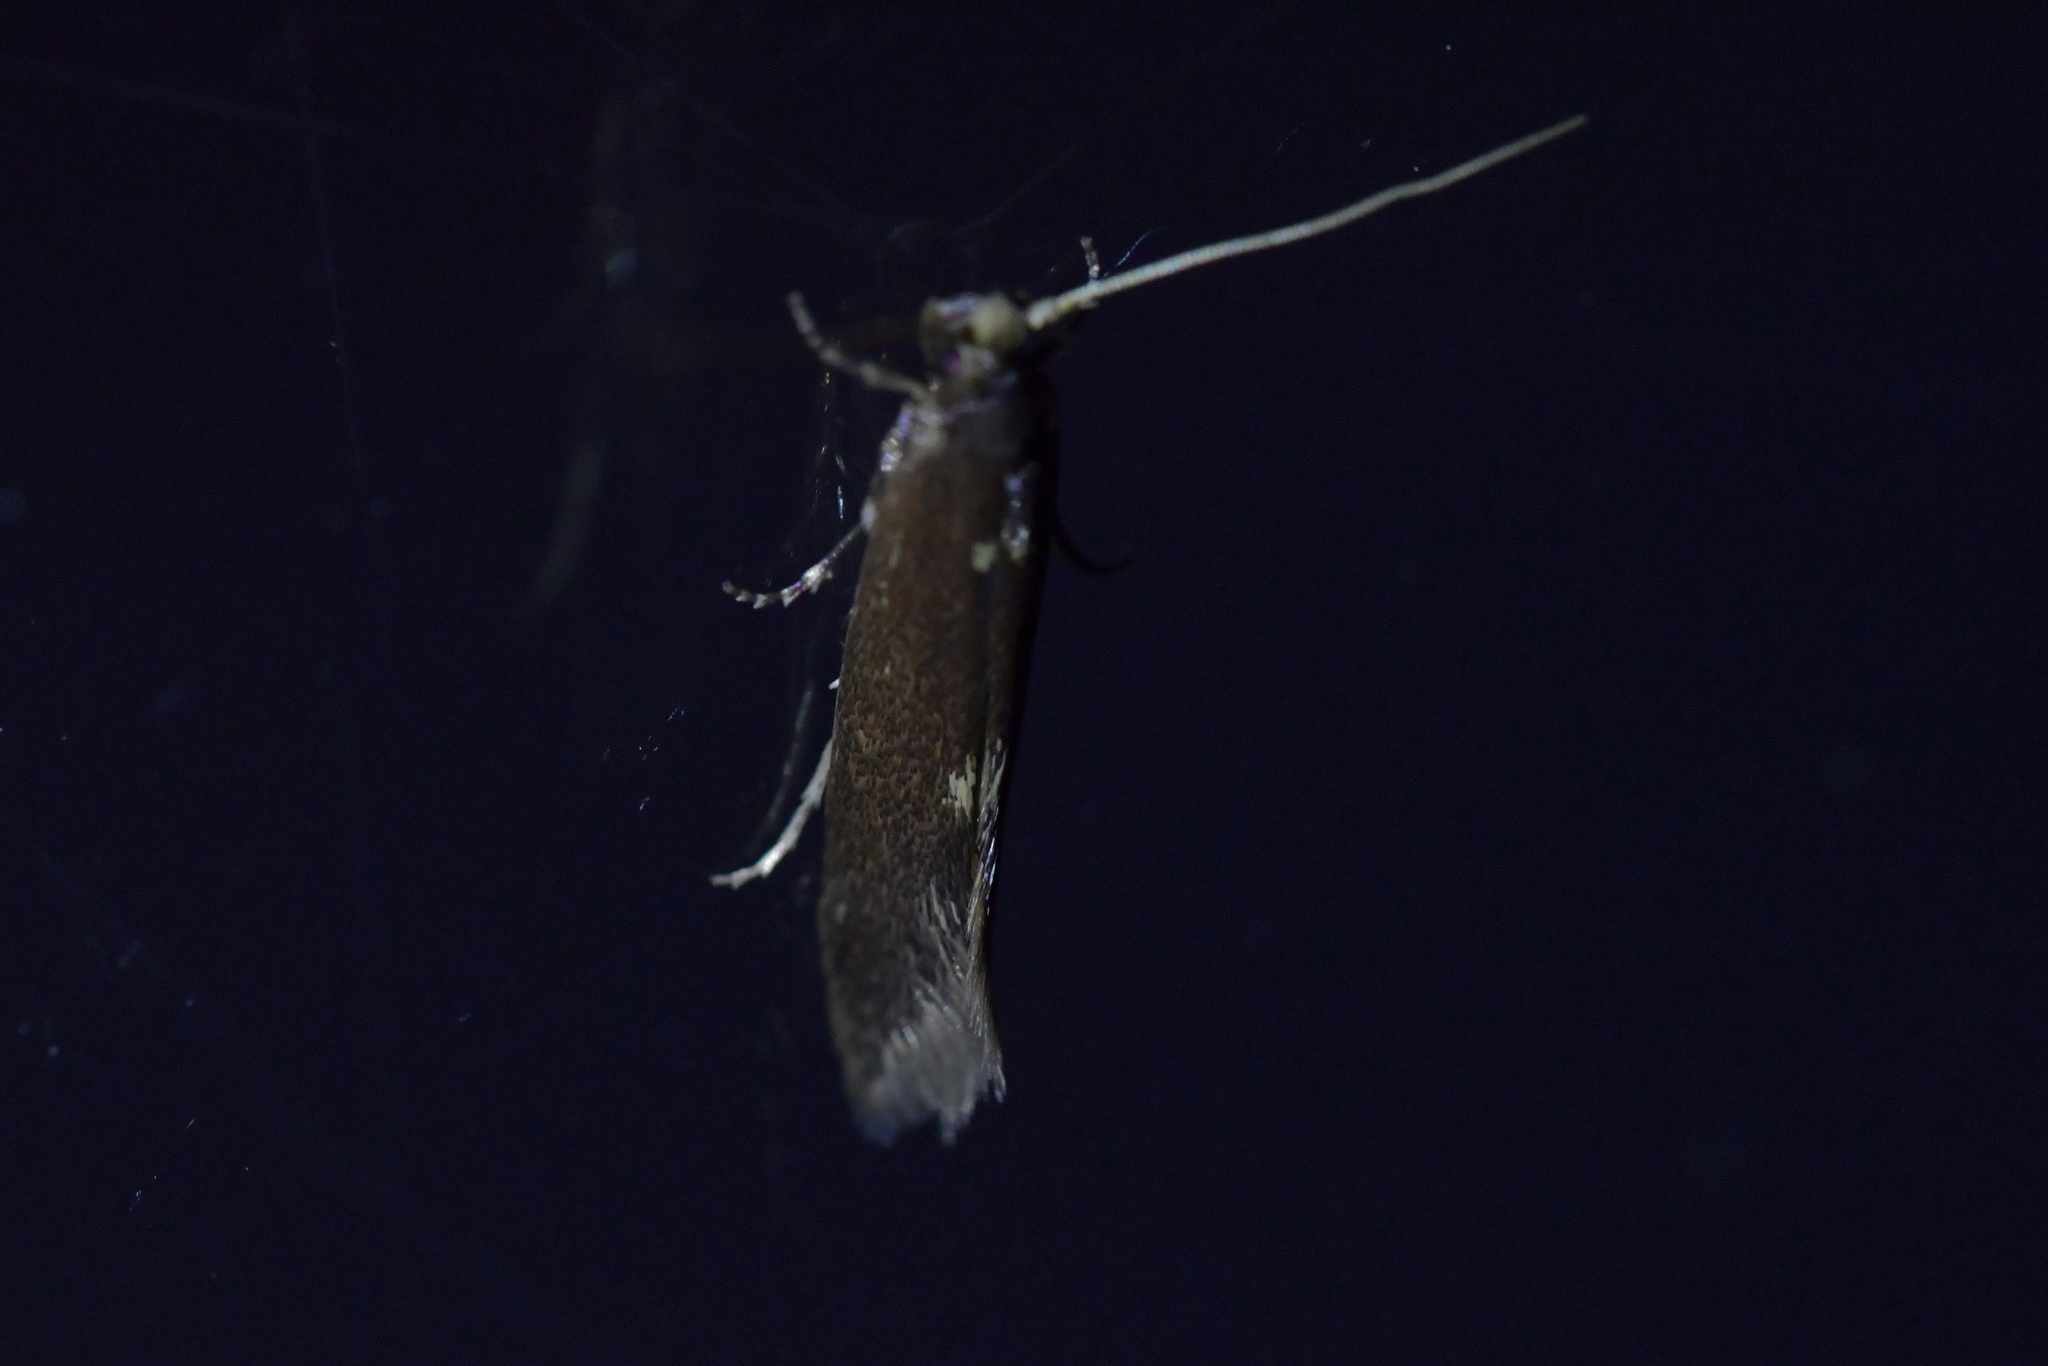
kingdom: Animalia
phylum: Arthropoda
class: Insecta
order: Lepidoptera
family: Tineidae
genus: Opogona
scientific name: Opogona omoscopa
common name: Moth
